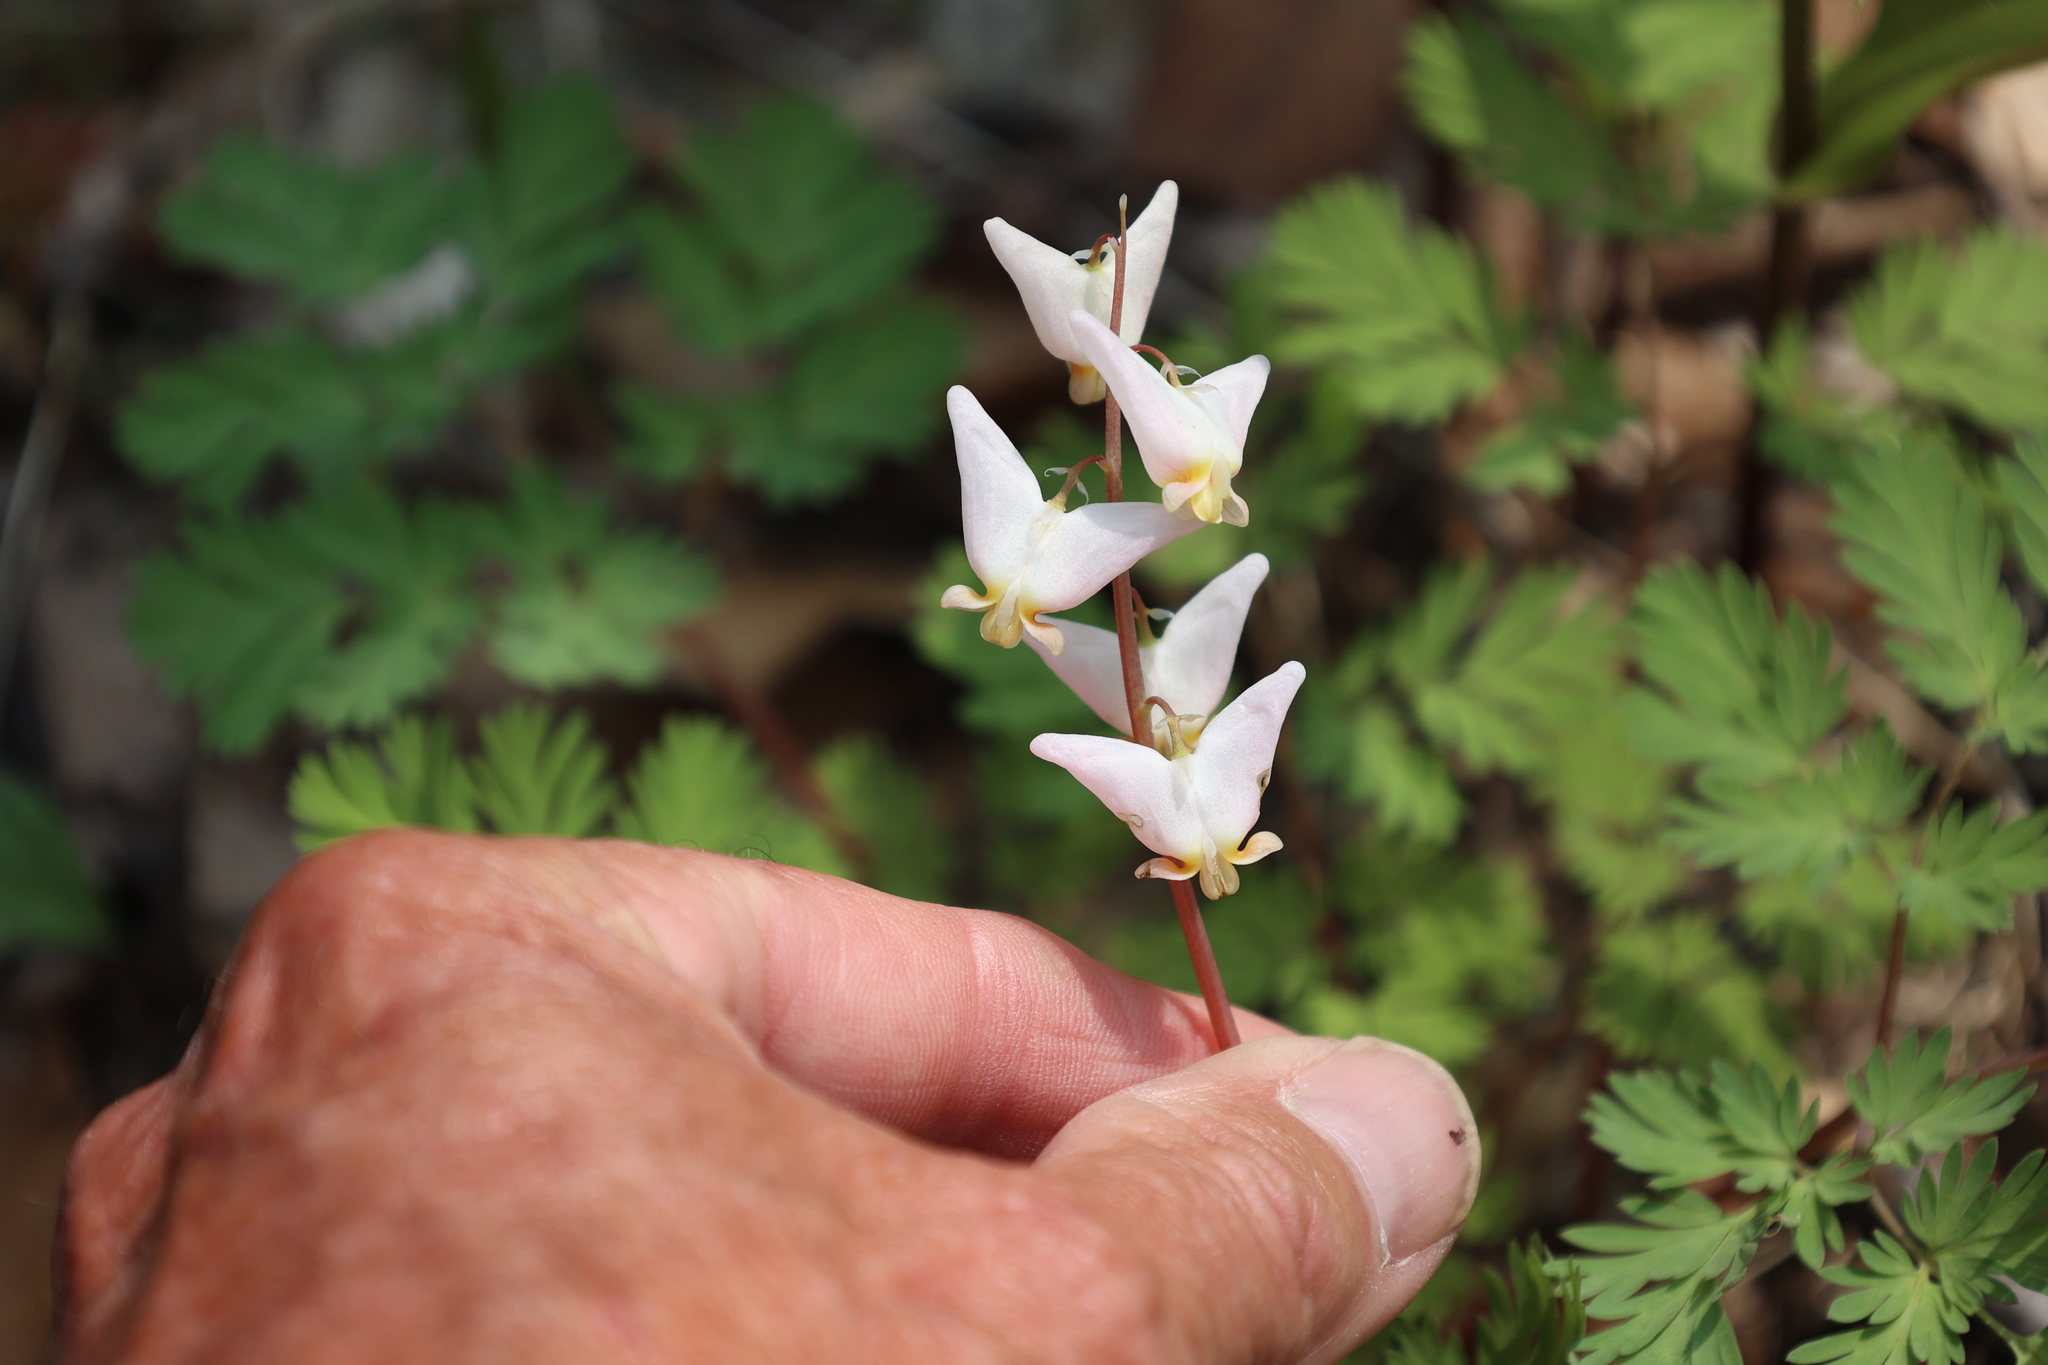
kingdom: Plantae
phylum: Tracheophyta
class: Magnoliopsida
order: Ranunculales
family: Papaveraceae
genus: Dicentra
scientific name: Dicentra cucullaria
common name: Dutchman's breeches
